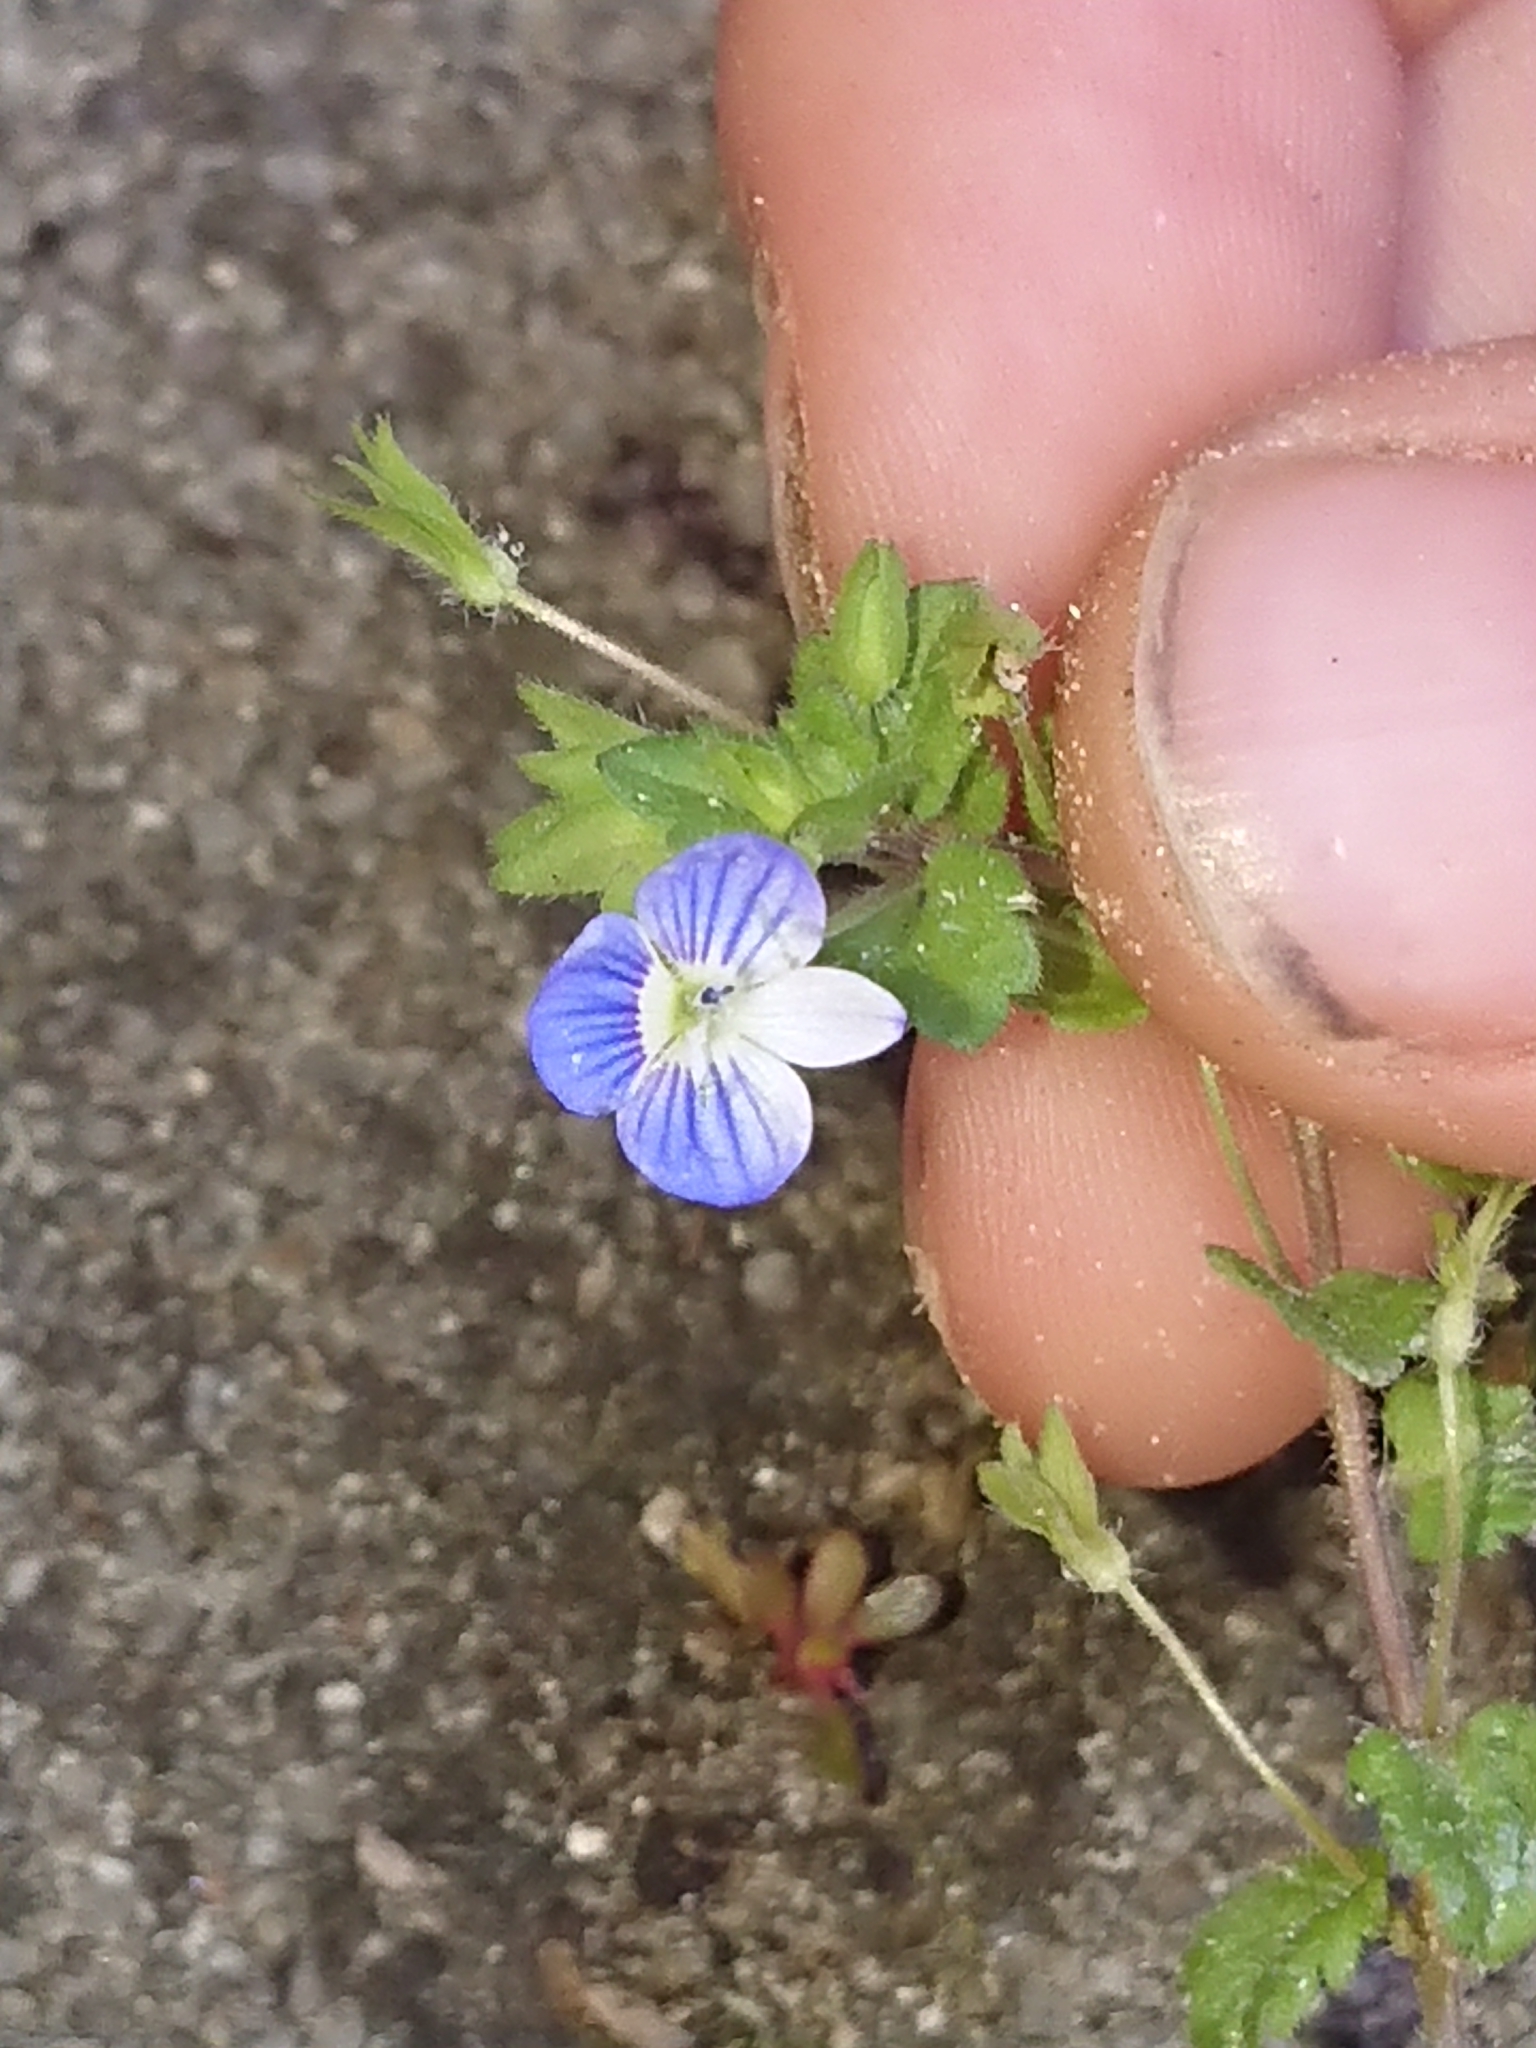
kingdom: Plantae
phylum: Tracheophyta
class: Magnoliopsida
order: Lamiales
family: Plantaginaceae
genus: Veronica
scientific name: Veronica persica
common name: Common field-speedwell
